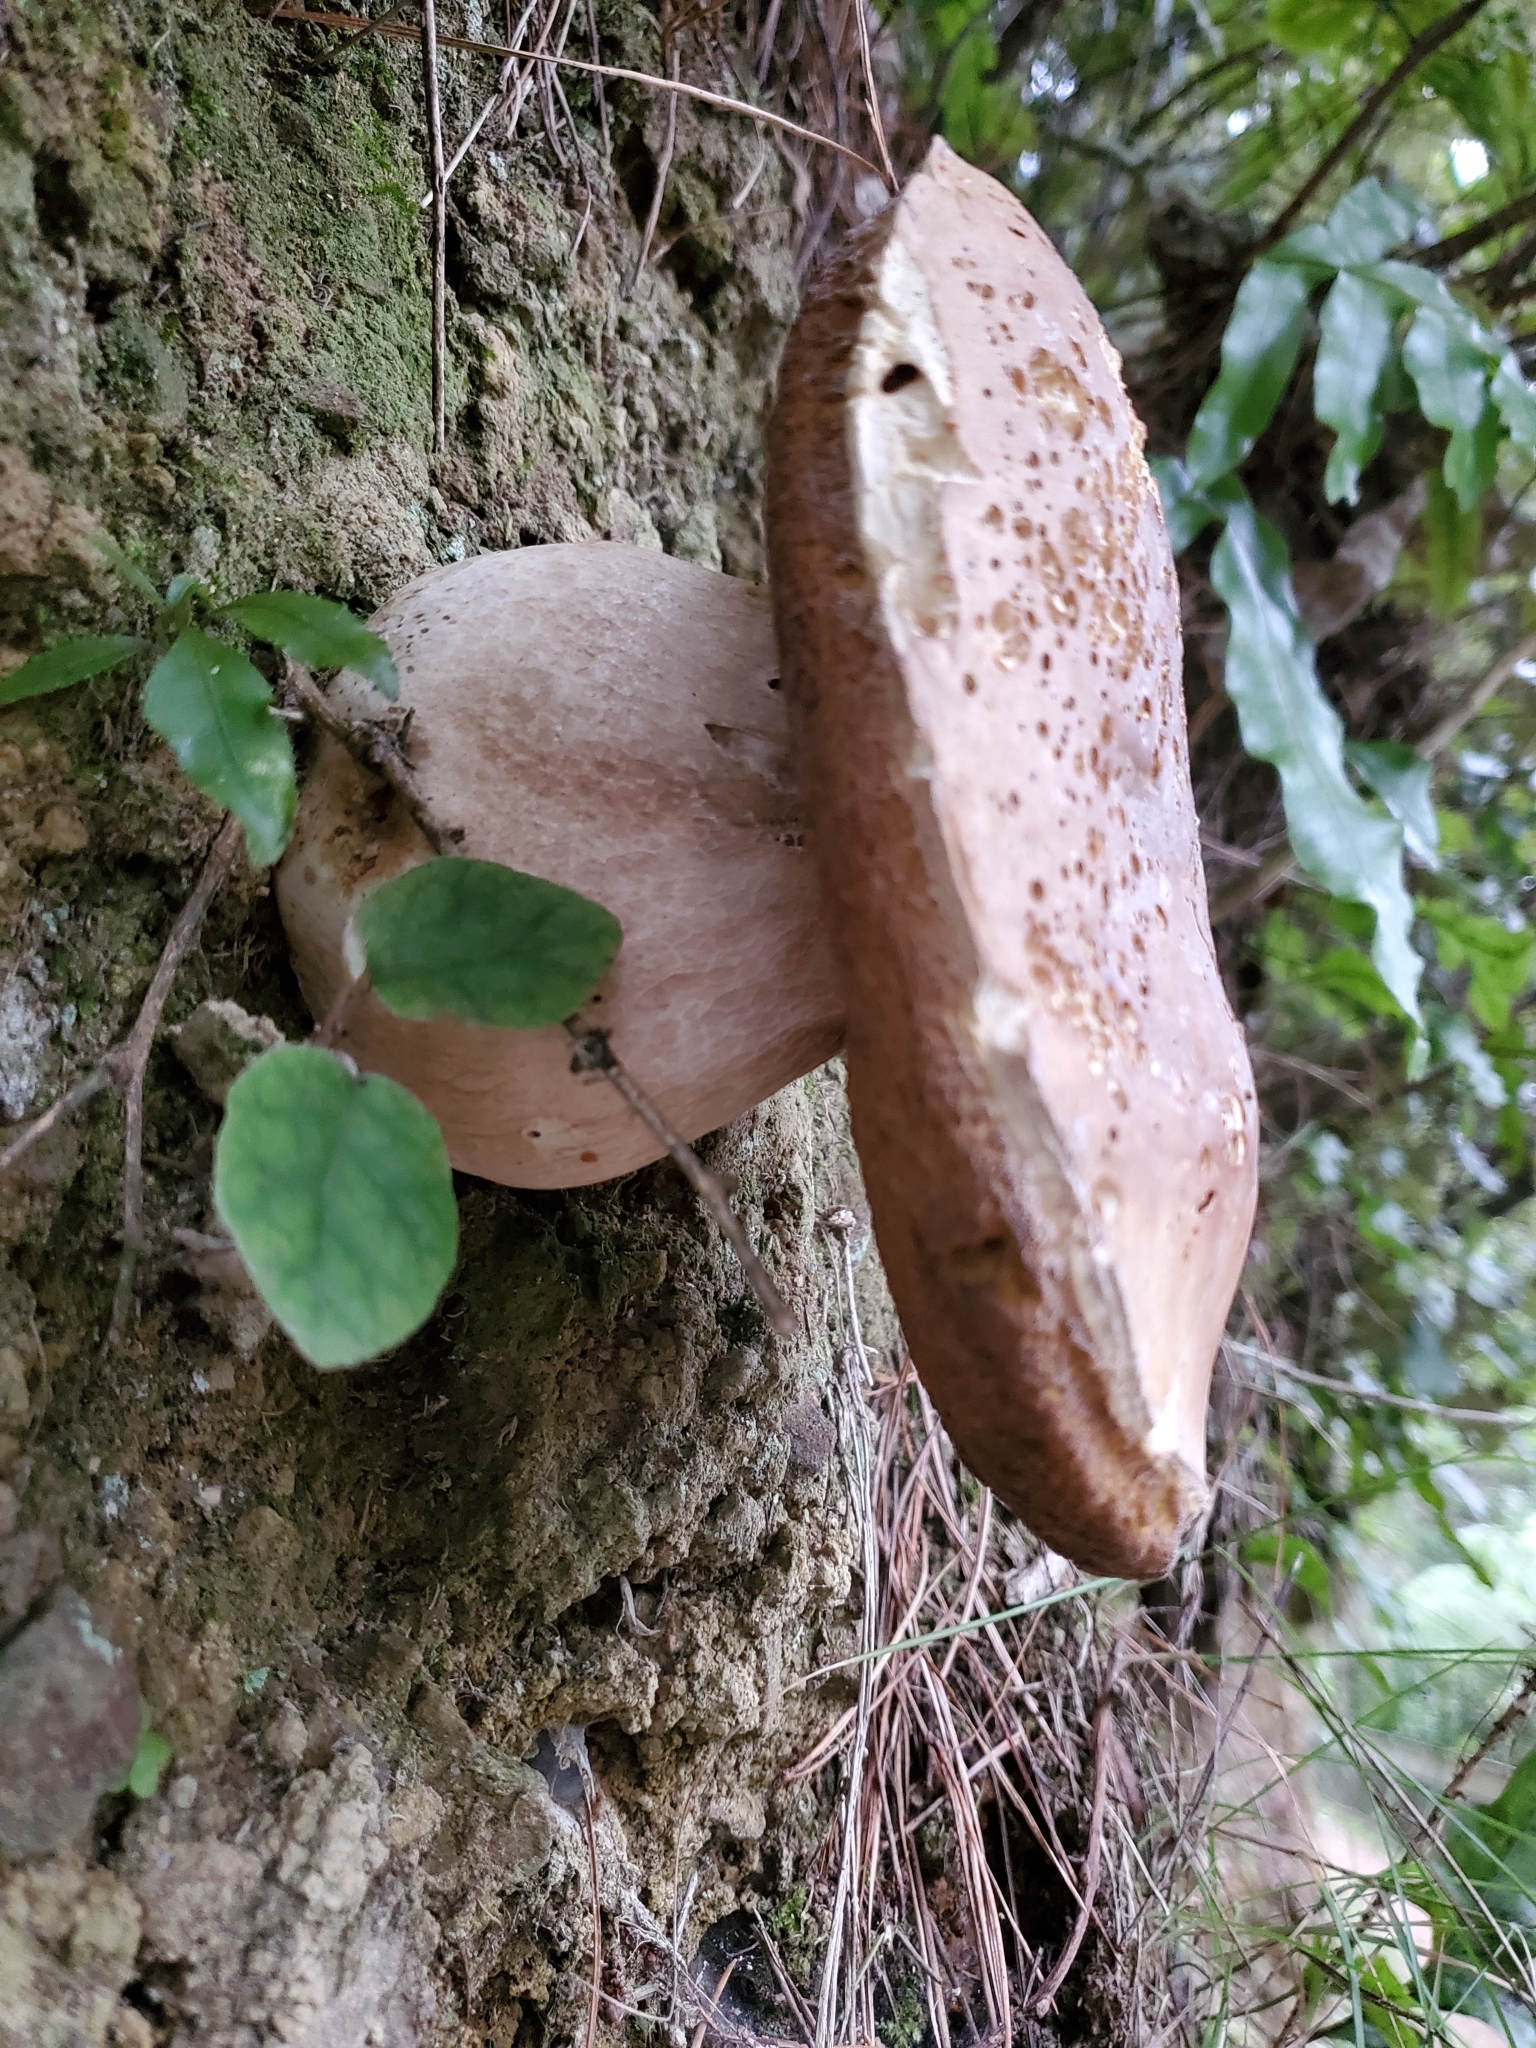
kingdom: Fungi
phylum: Basidiomycota
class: Agaricomycetes
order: Boletales
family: Boletaceae
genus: Boletus
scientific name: Boletus edulis
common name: Cep
